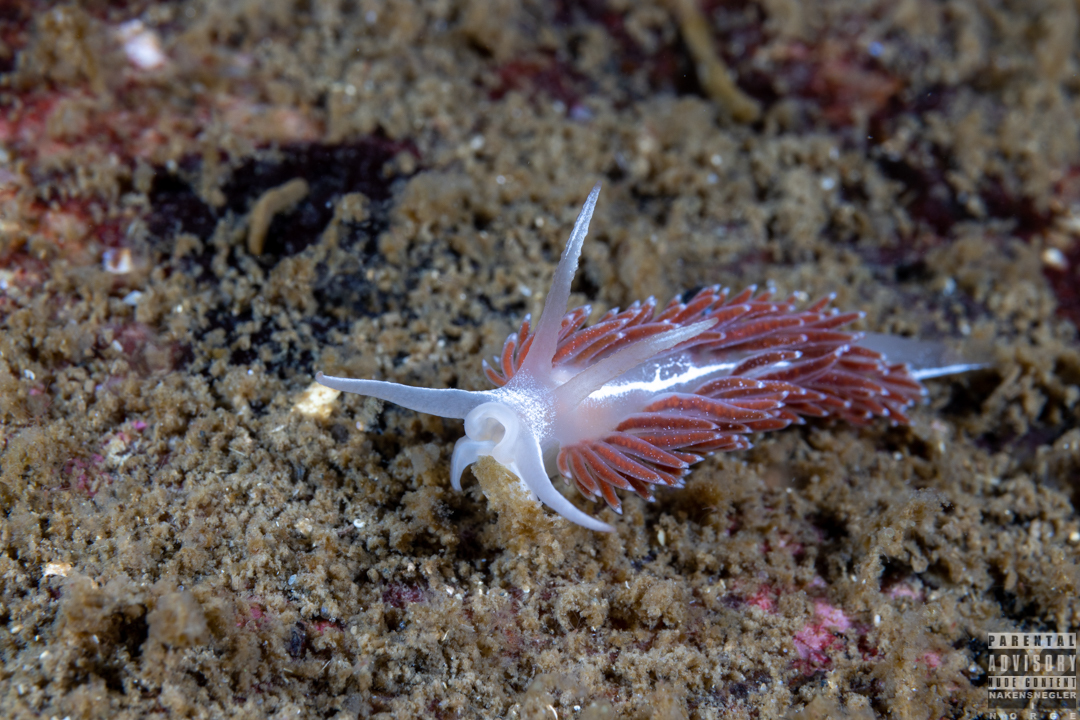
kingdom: Animalia
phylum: Mollusca
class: Gastropoda
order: Nudibranchia
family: Coryphellidae
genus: Coryphella
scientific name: Coryphella monicae
